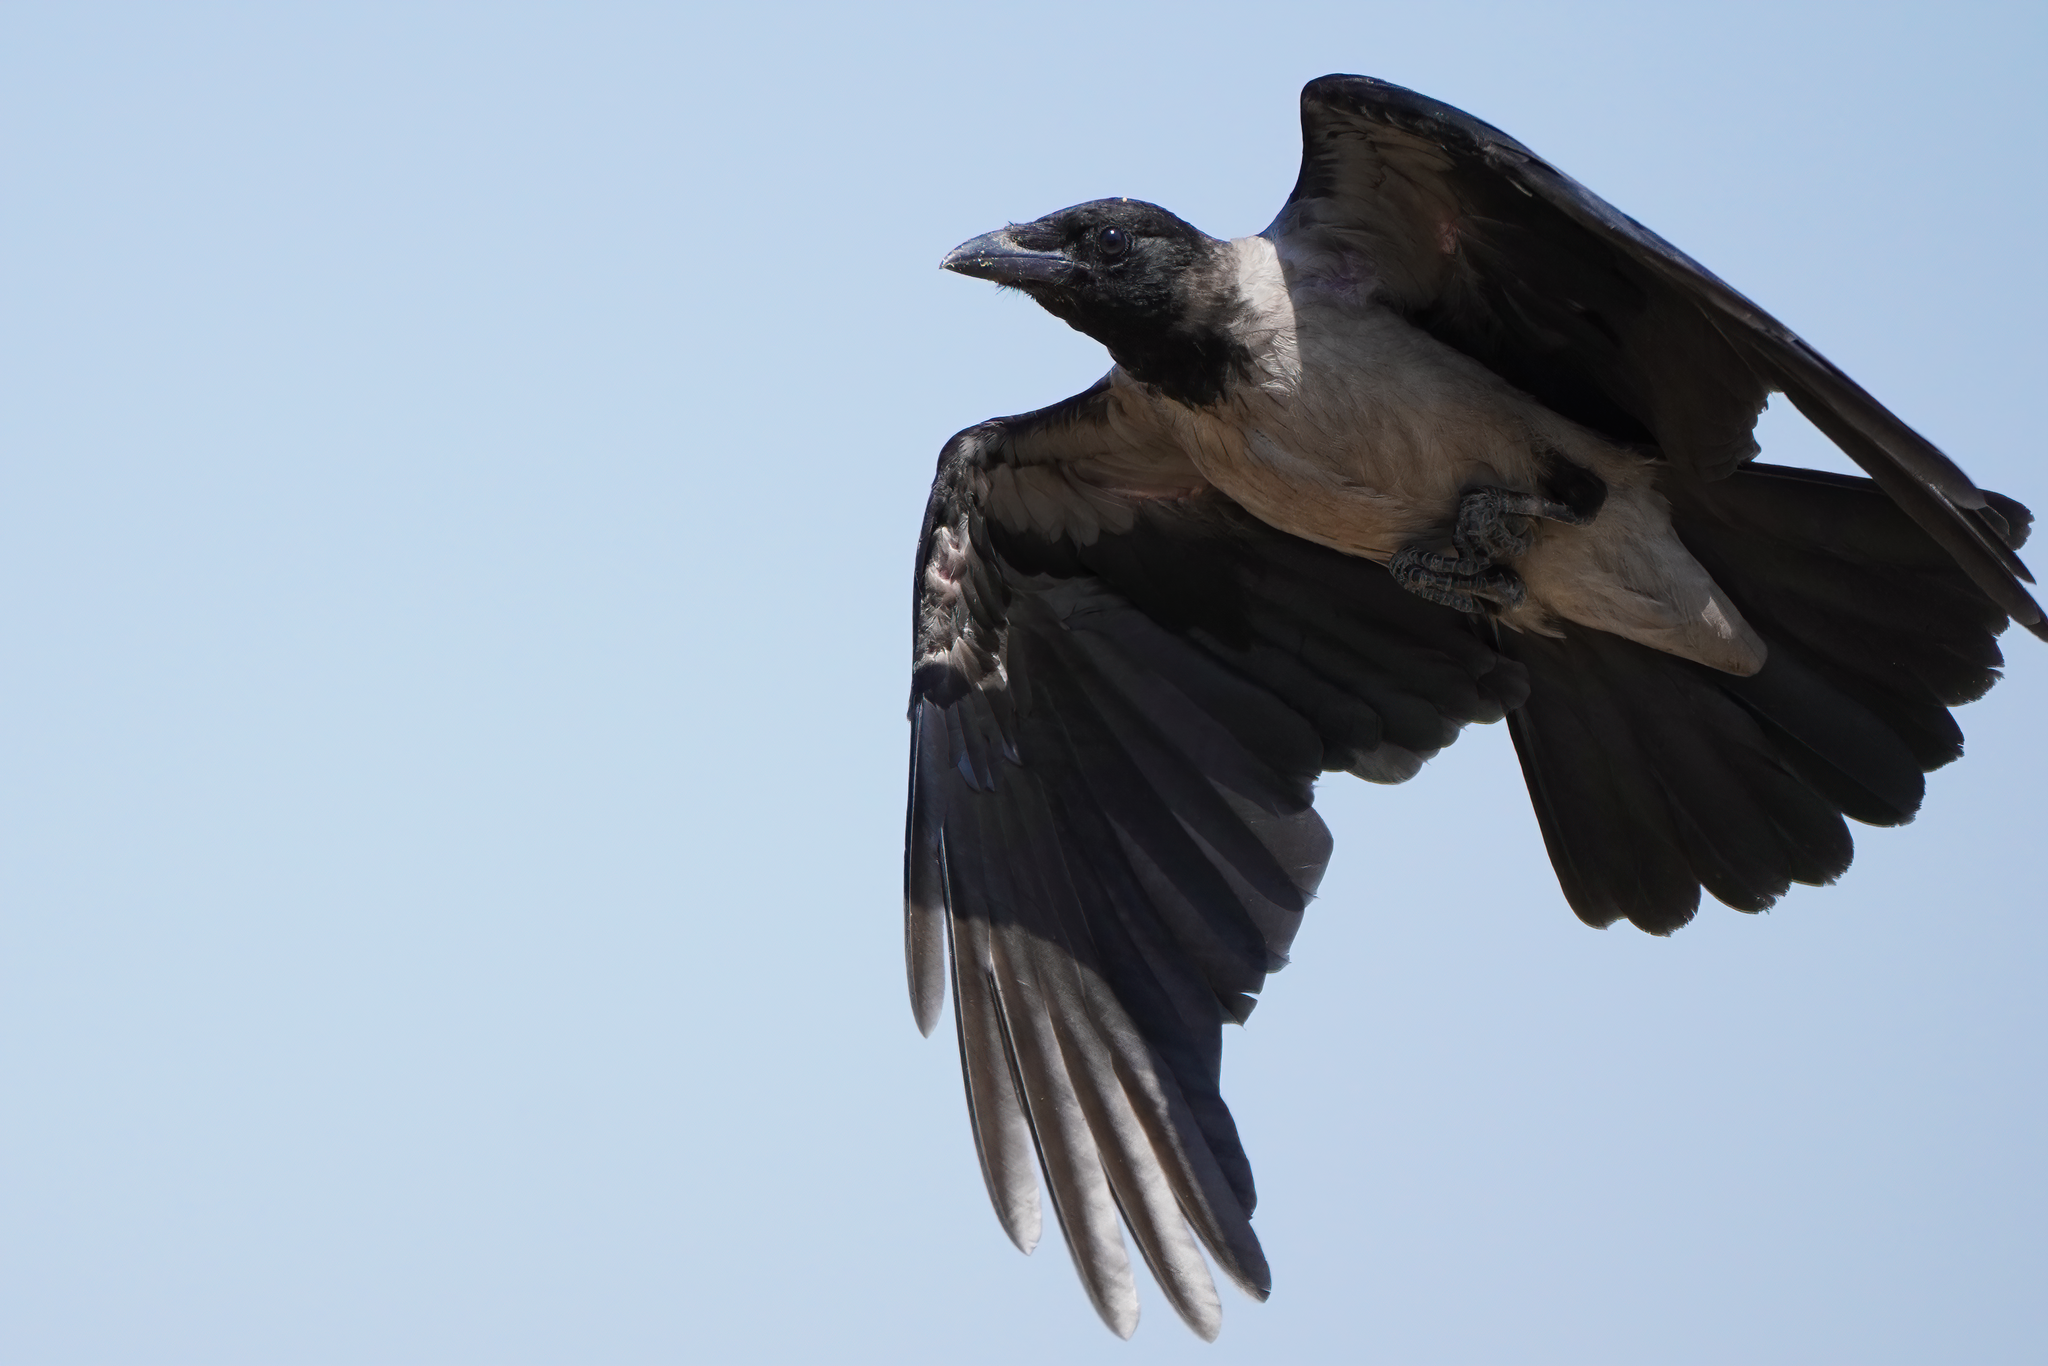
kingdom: Animalia
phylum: Chordata
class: Aves
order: Passeriformes
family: Corvidae
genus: Corvus
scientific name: Corvus cornix
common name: Hooded crow
